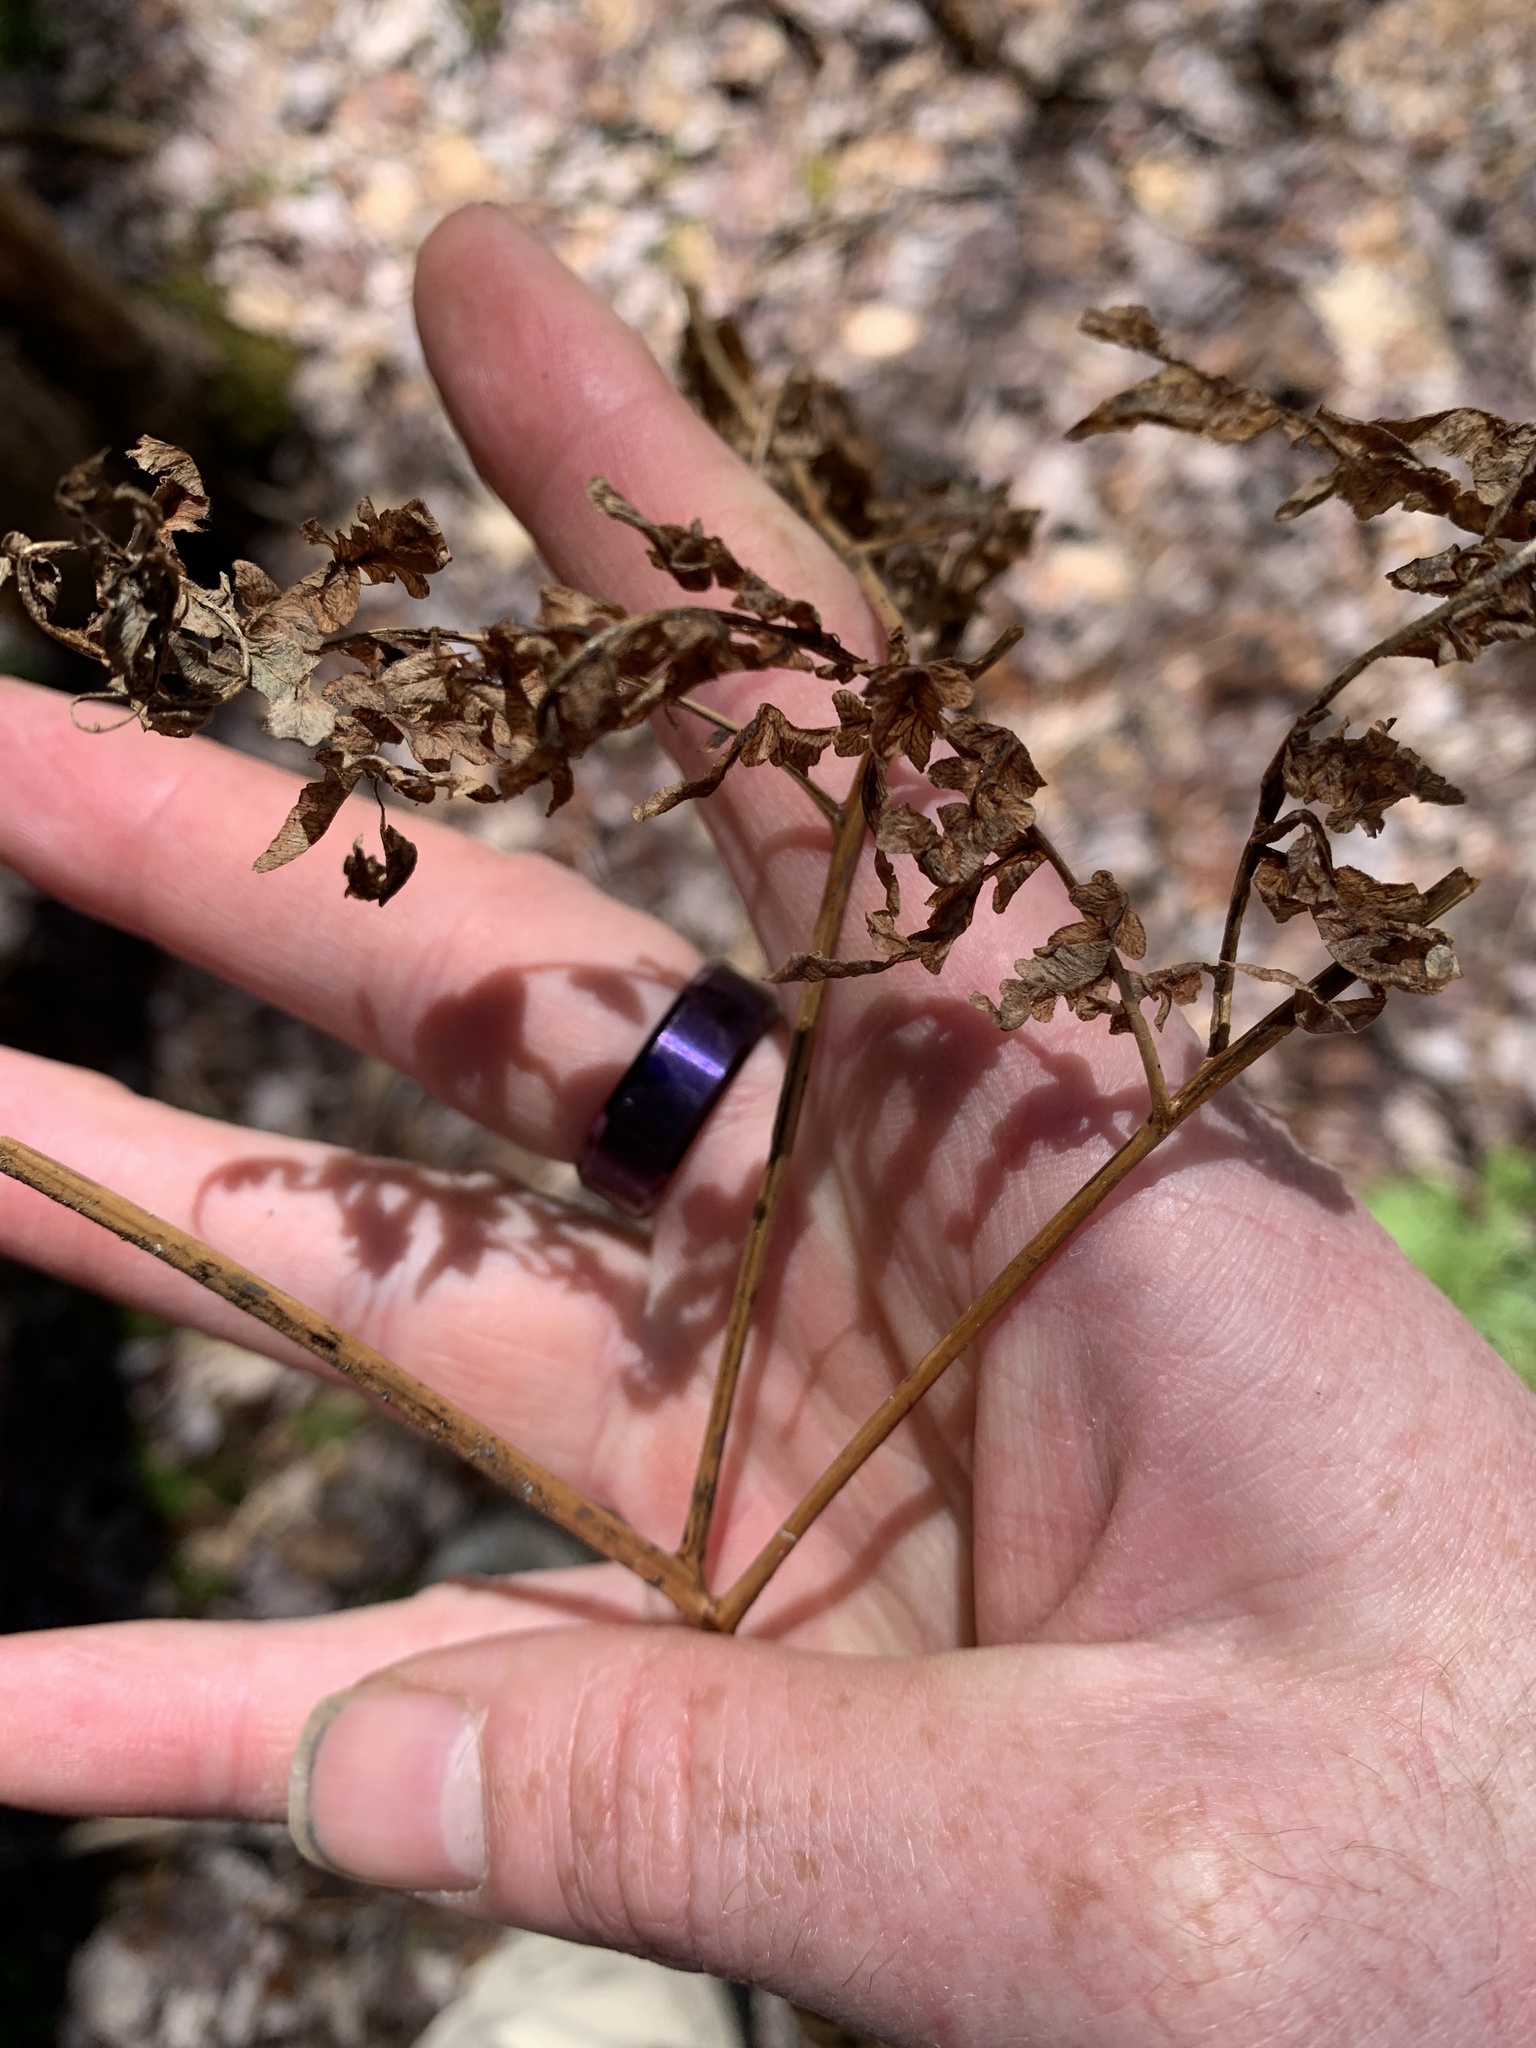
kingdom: Plantae
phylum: Tracheophyta
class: Polypodiopsida
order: Polypodiales
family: Dennstaedtiaceae
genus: Pteridium
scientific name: Pteridium aquilinum
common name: Bracken
